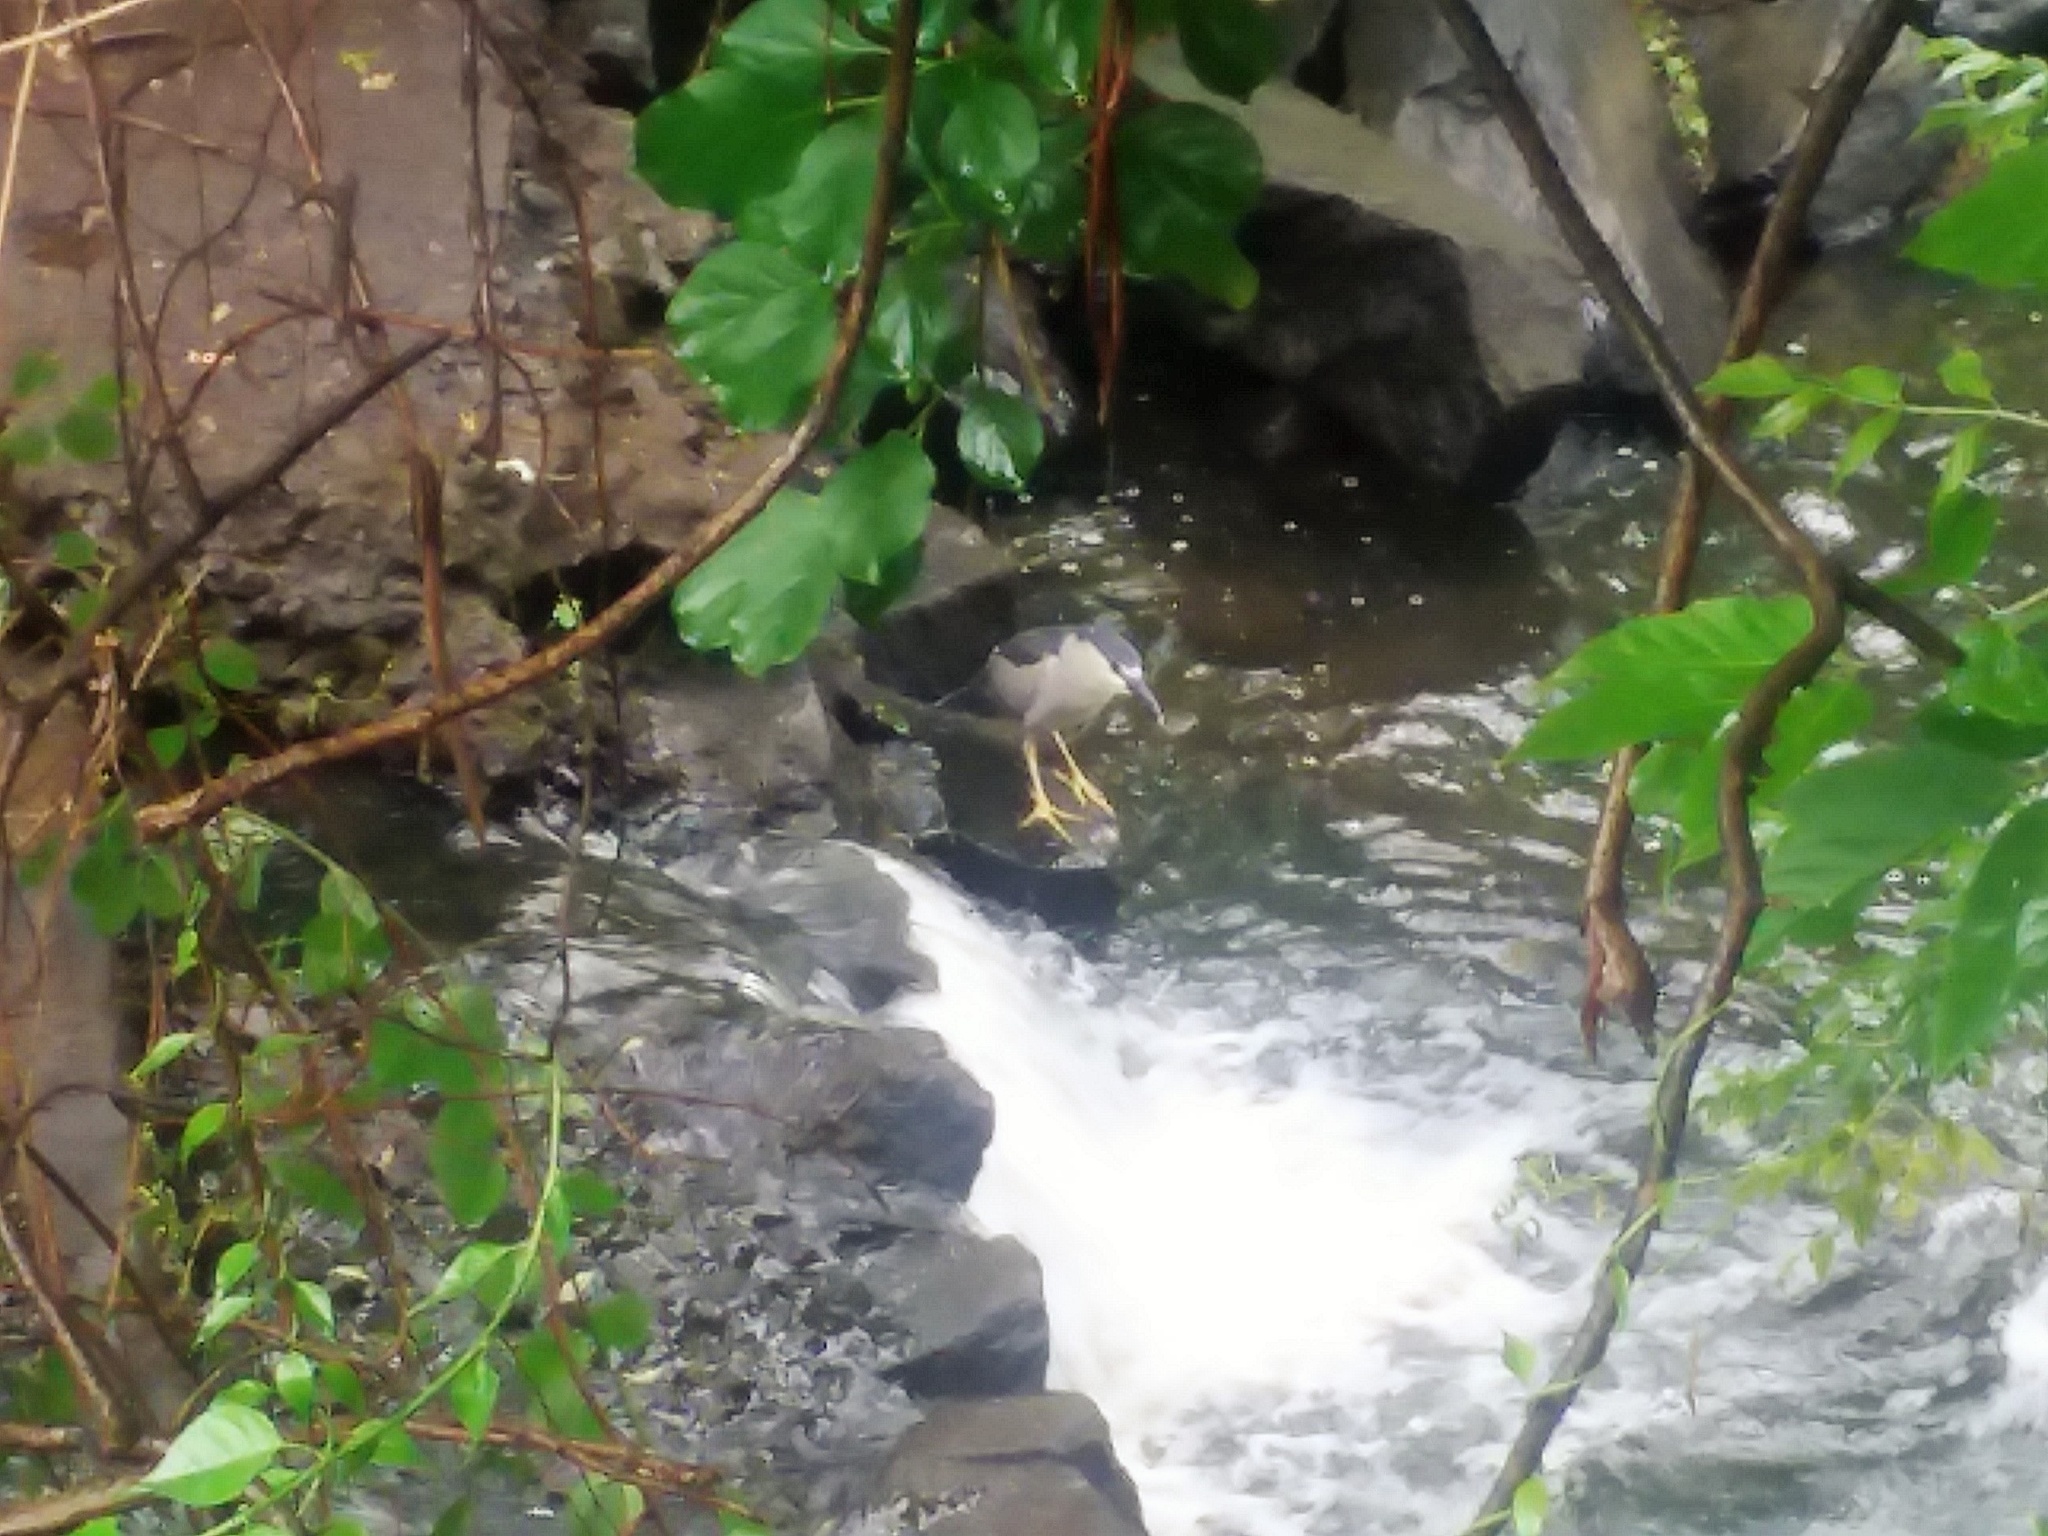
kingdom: Animalia
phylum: Chordata
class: Aves
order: Pelecaniformes
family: Ardeidae
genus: Nycticorax
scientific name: Nycticorax nycticorax
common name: Black-crowned night heron
